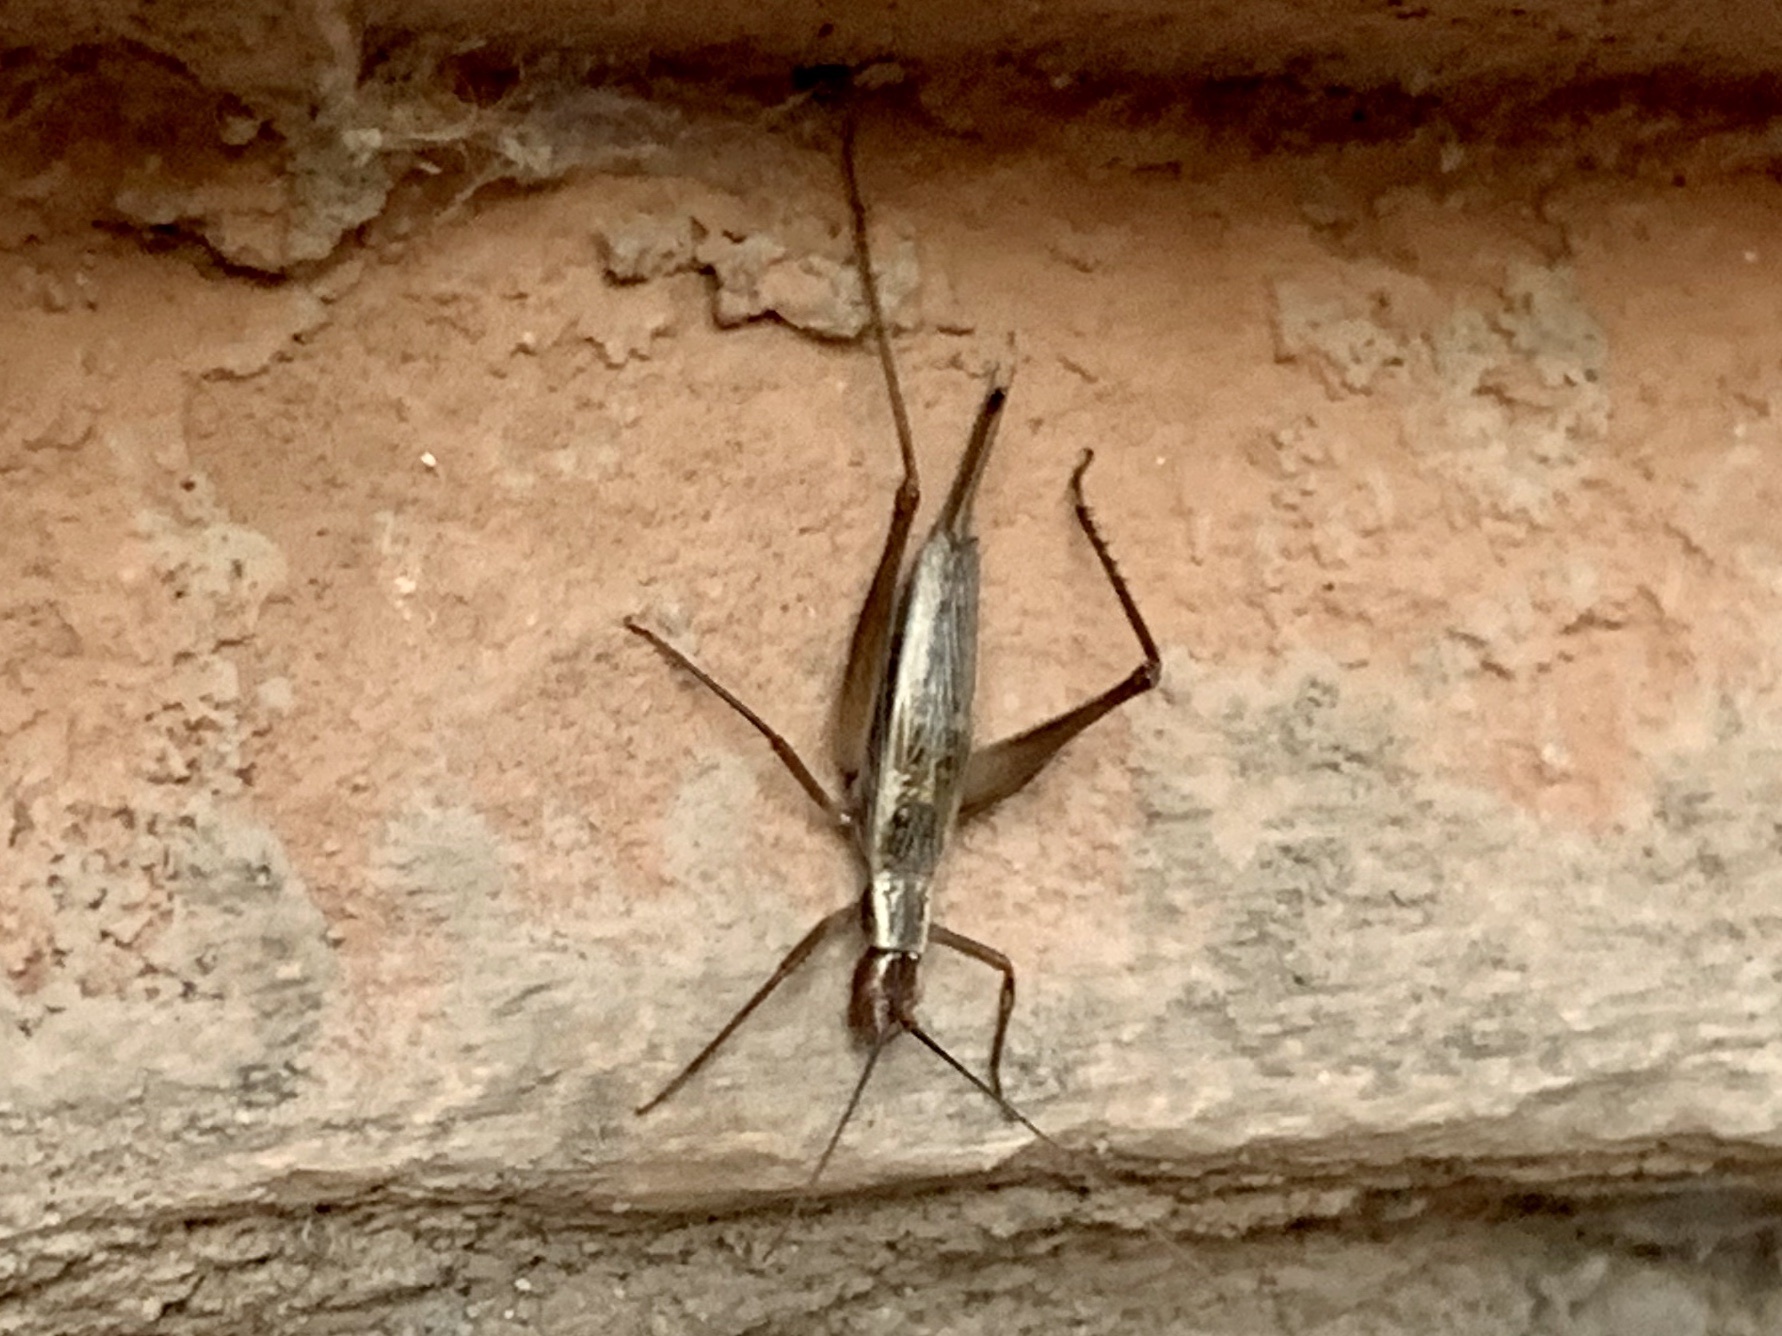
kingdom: Animalia
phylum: Arthropoda
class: Insecta
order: Orthoptera
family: Gryllidae
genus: Oecanthus
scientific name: Oecanthus californicus
